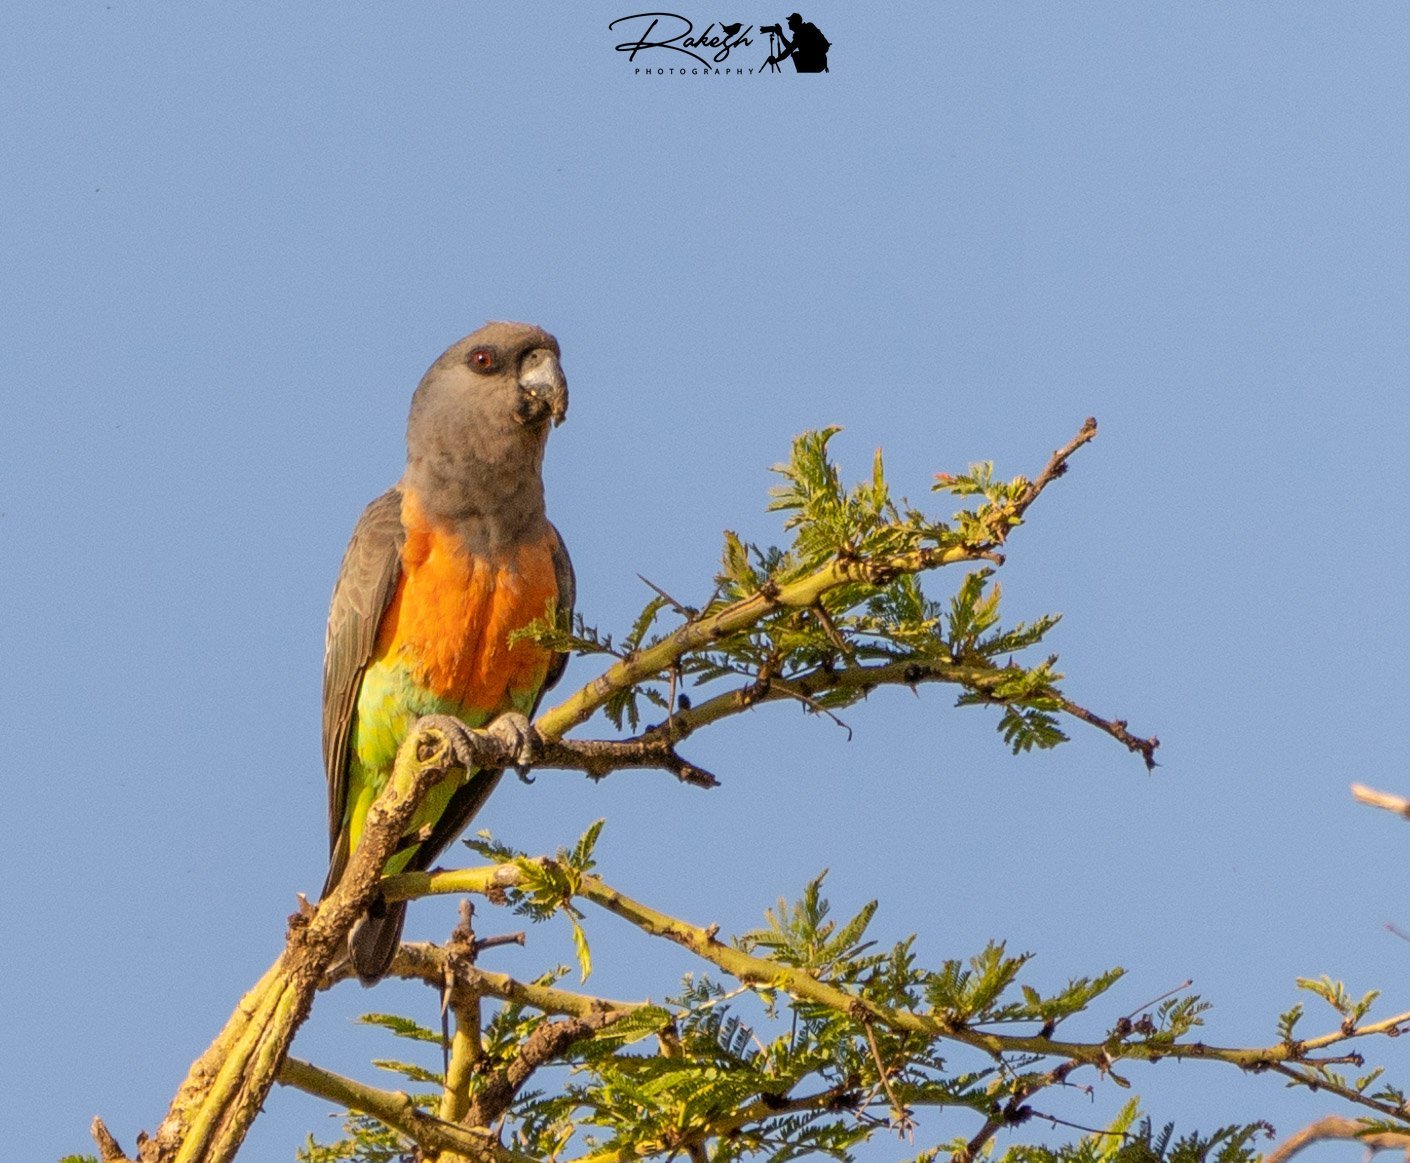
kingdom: Animalia
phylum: Chordata
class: Aves
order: Psittaciformes
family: Psittacidae
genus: Poicephalus
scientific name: Poicephalus rufiventris
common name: Red-bellied parrot
